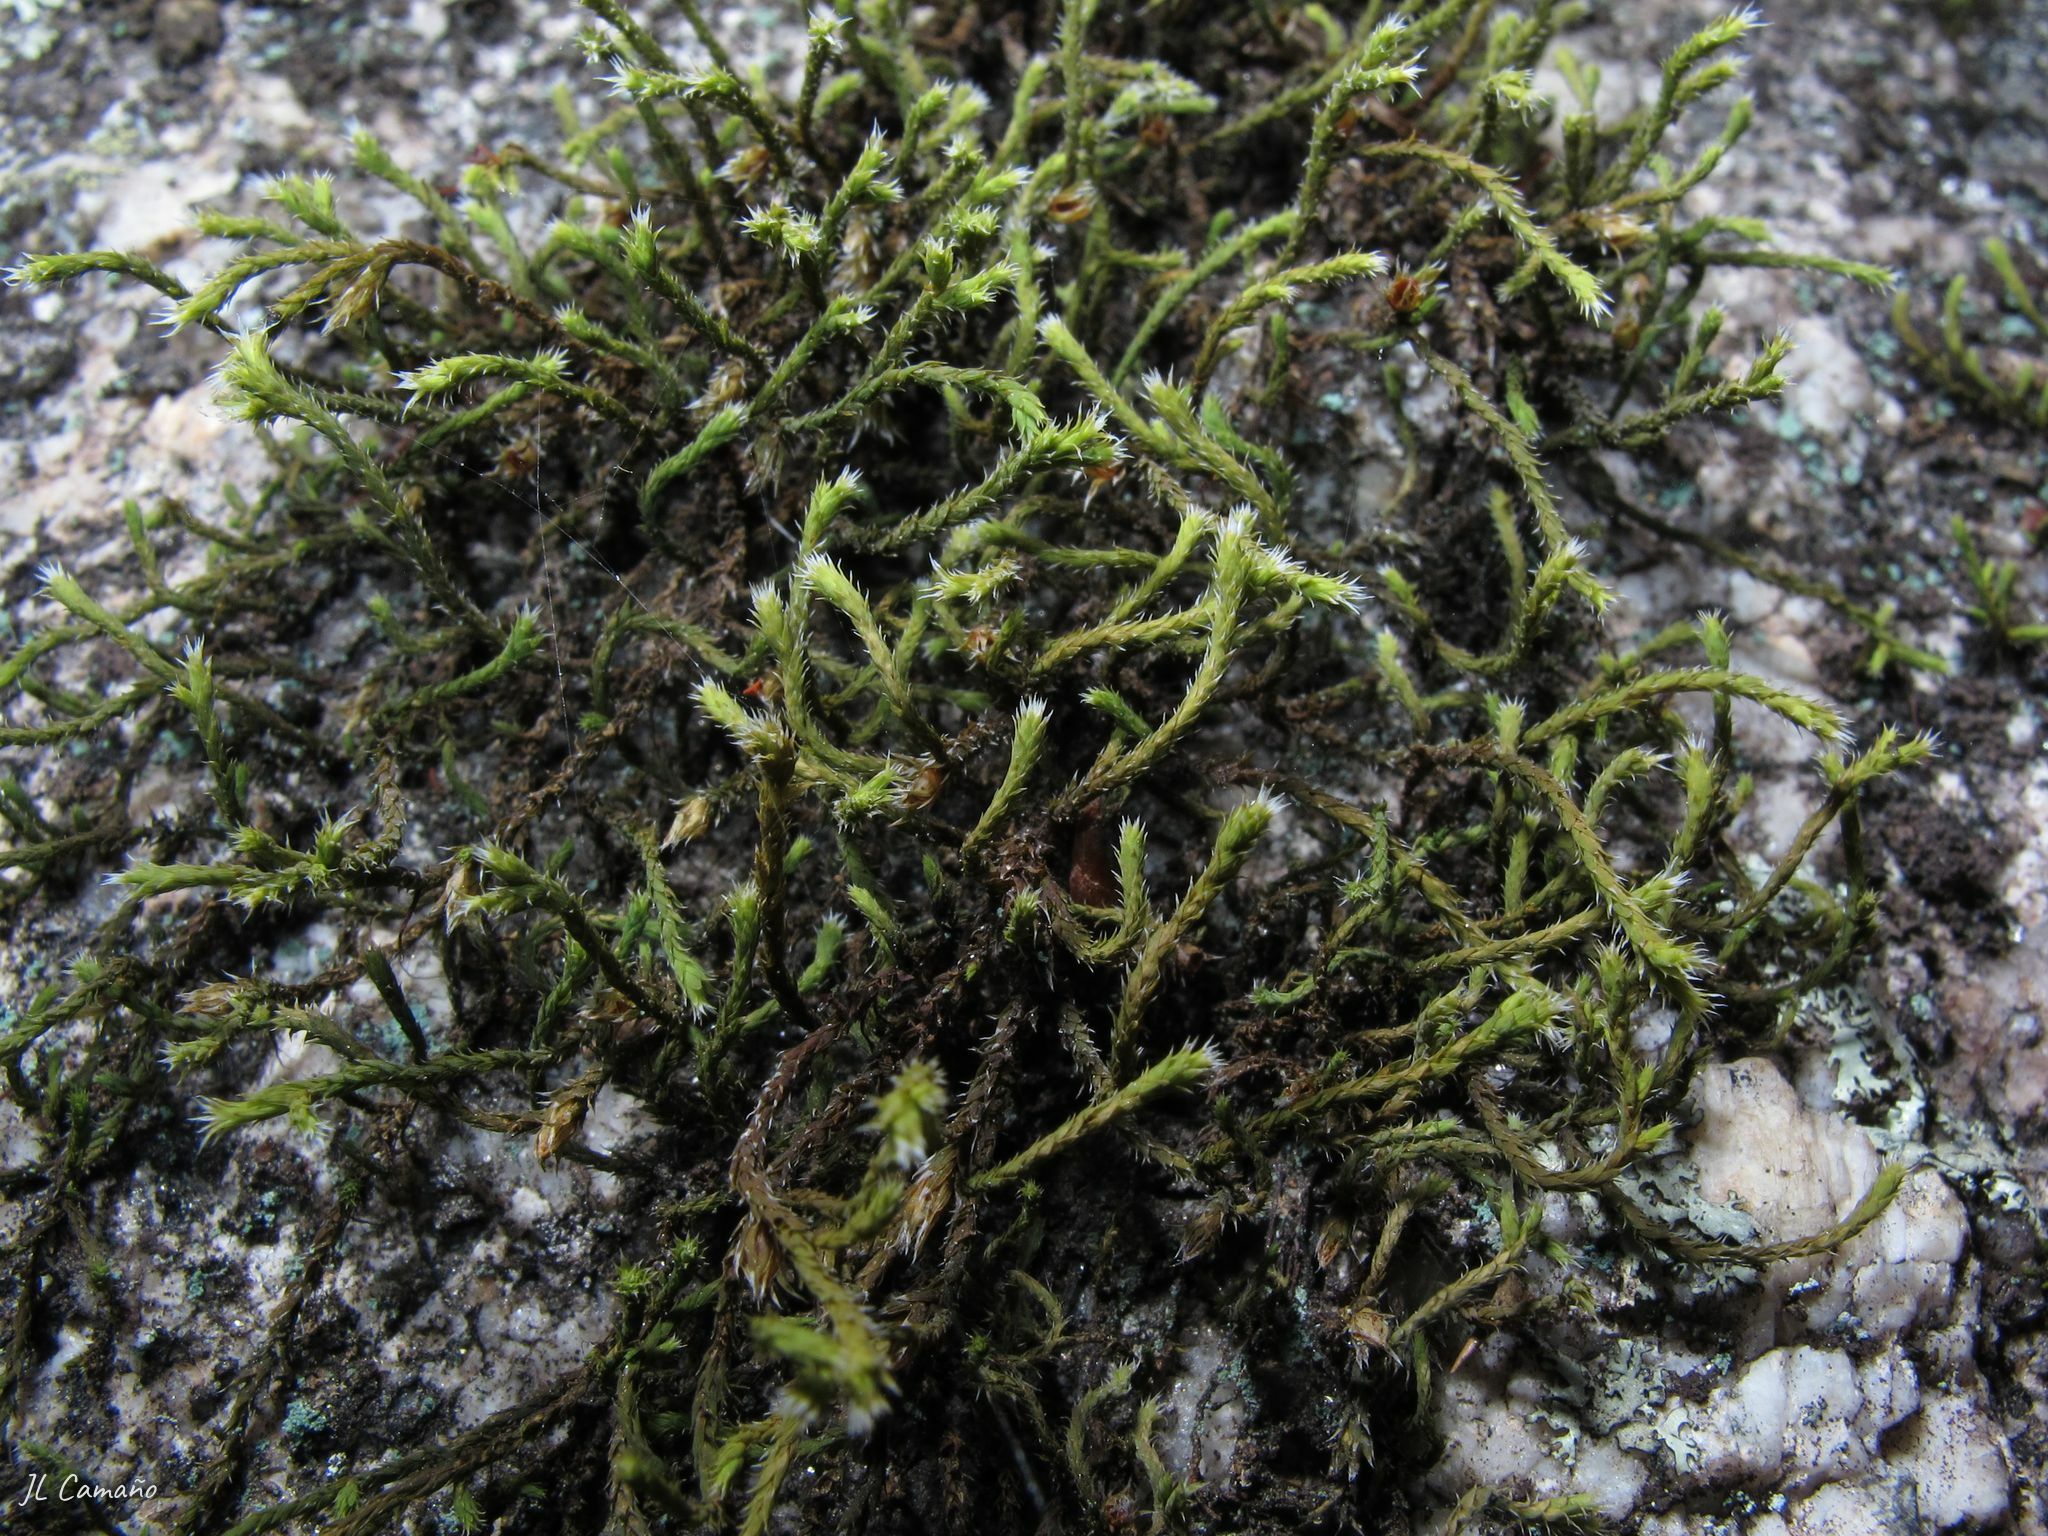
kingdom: Plantae
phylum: Bryophyta
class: Bryopsida
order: Hedwigiales
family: Hedwigiaceae
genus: Hedwigia
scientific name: Hedwigia ciliata
